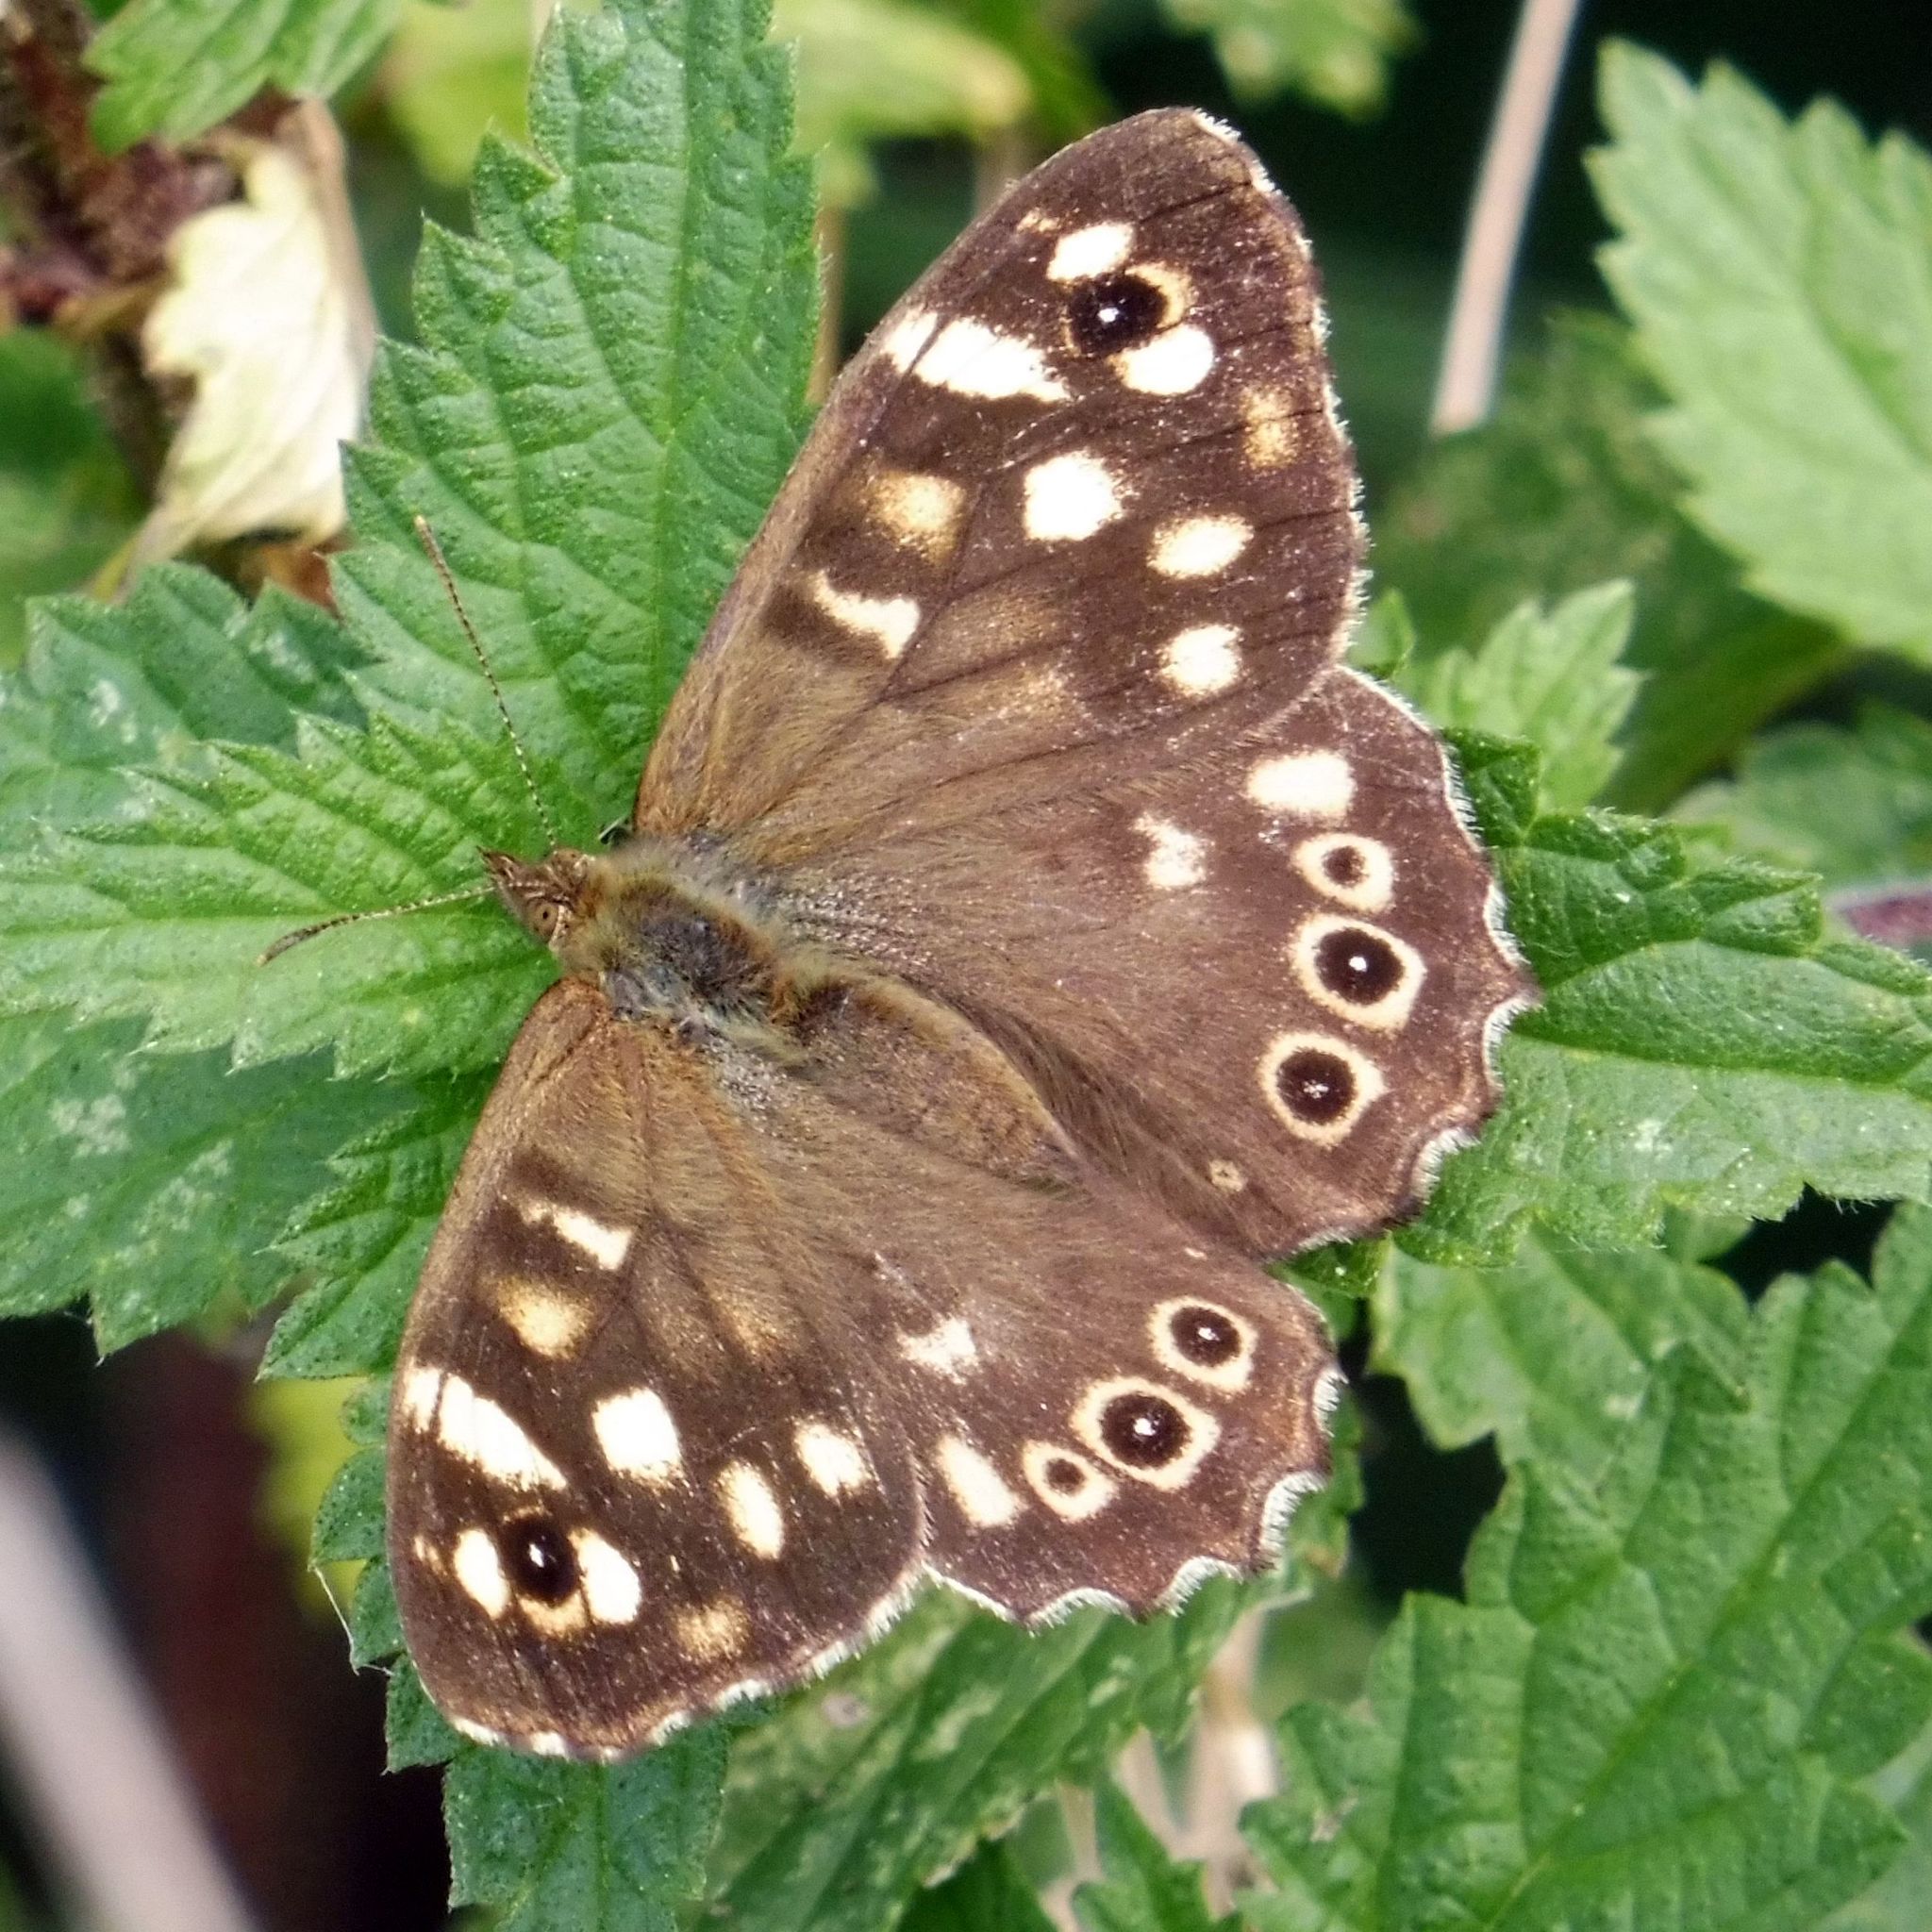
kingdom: Animalia
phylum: Arthropoda
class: Insecta
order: Lepidoptera
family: Nymphalidae
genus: Pararge
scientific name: Pararge aegeria
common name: Speckled wood
